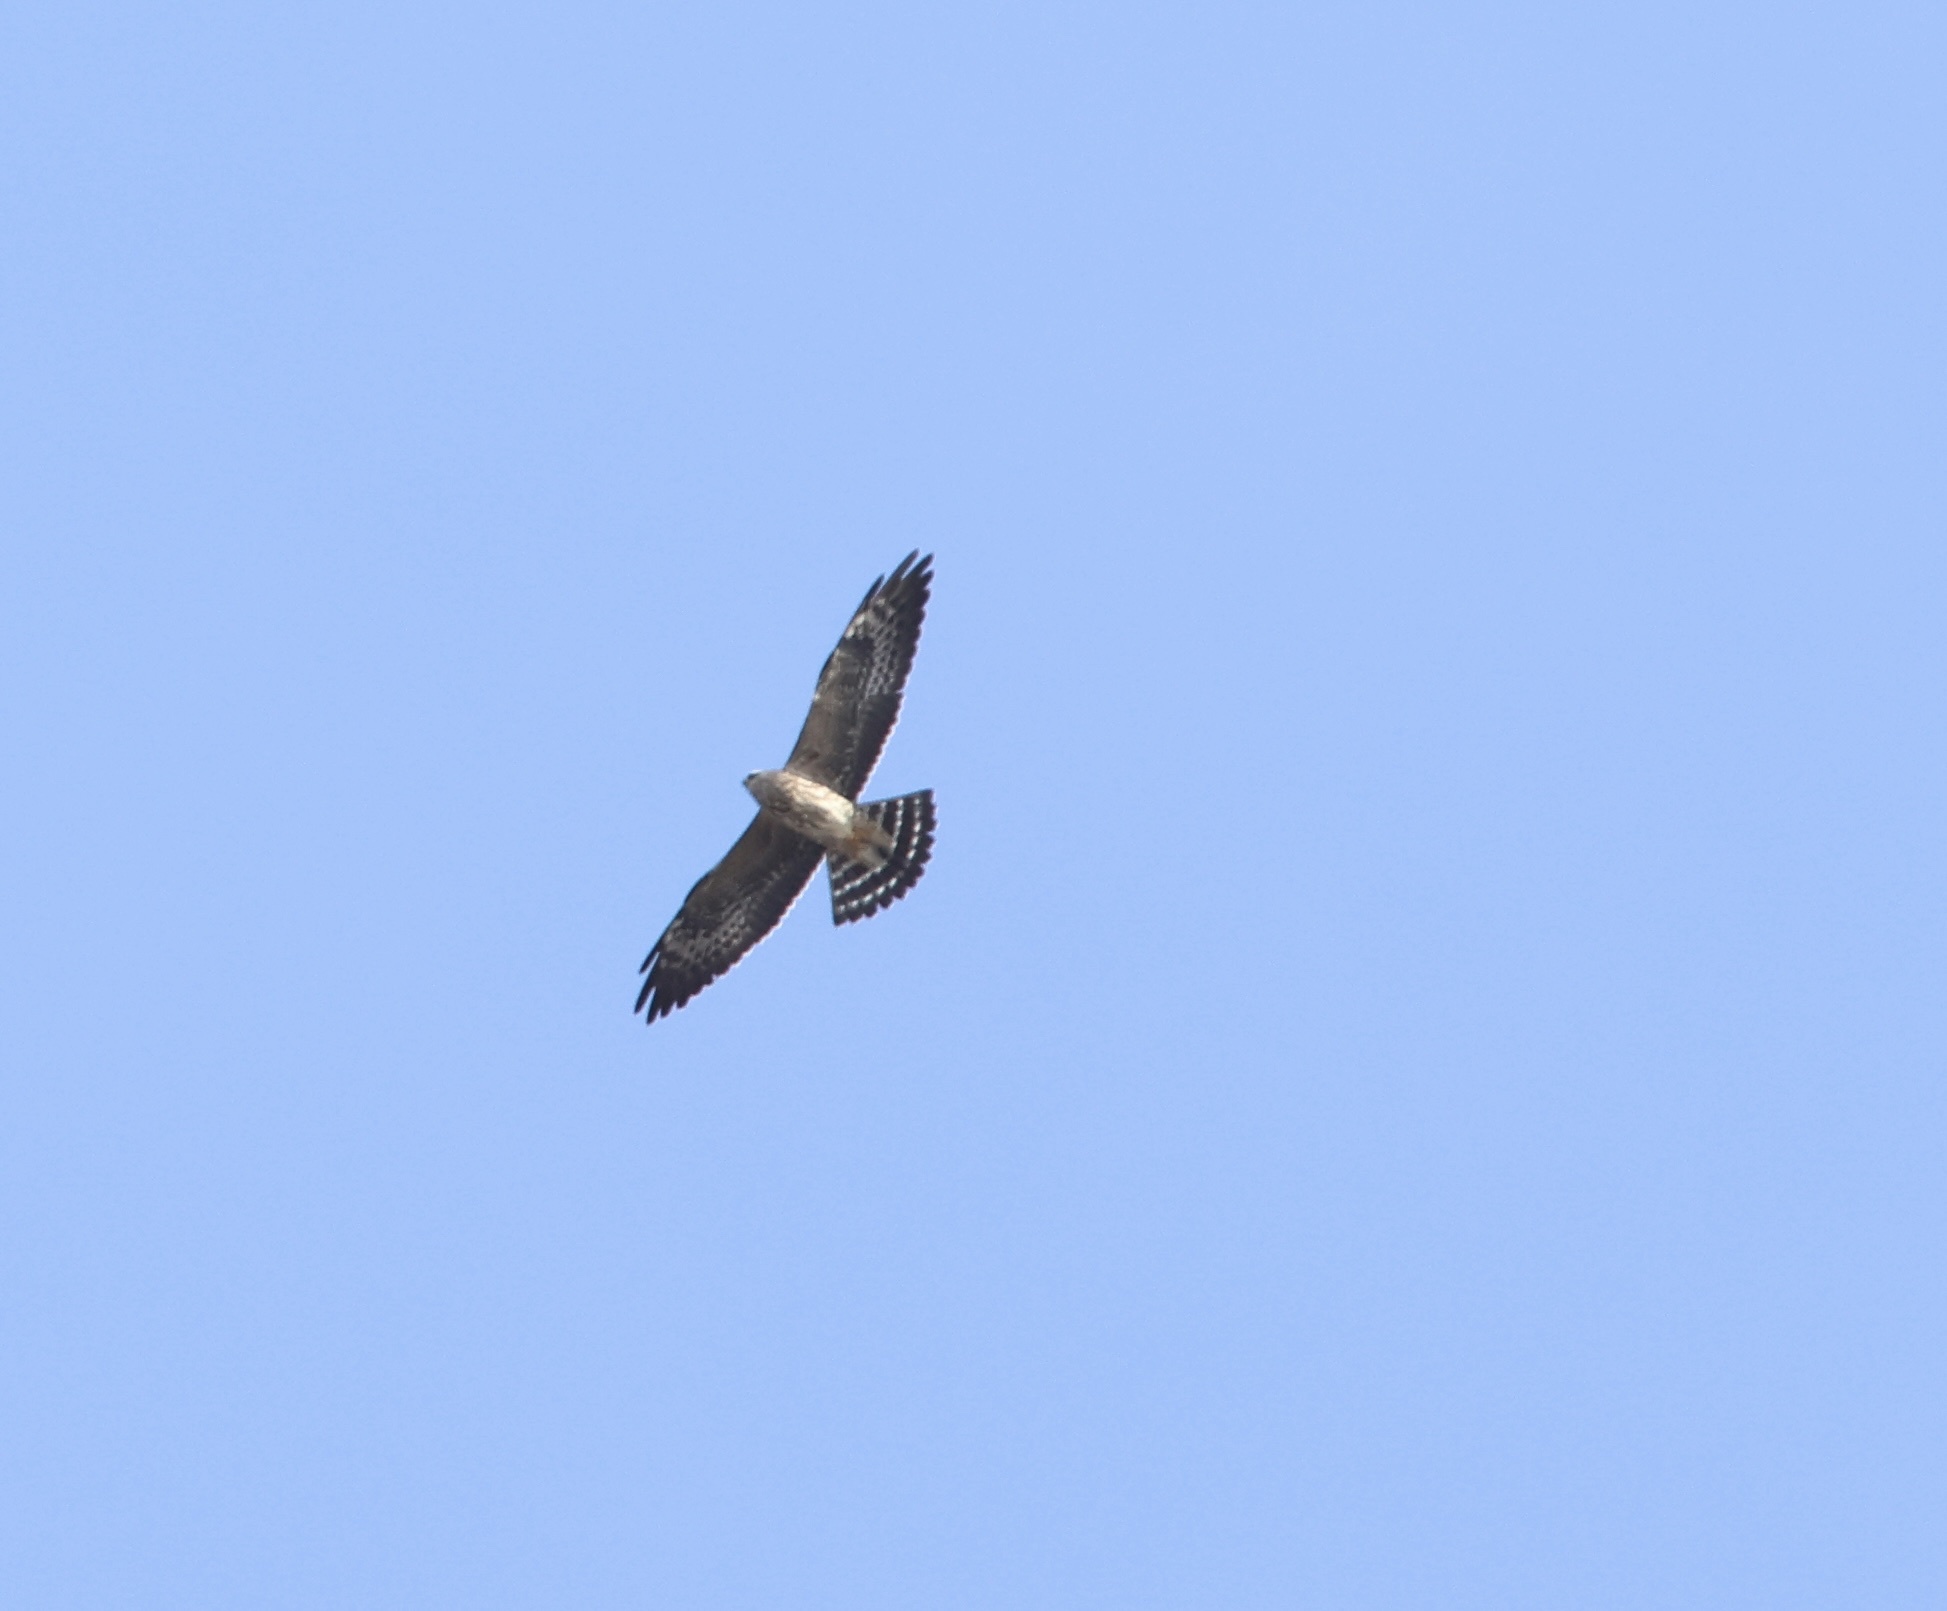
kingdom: Animalia
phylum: Chordata
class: Aves
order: Accipitriformes
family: Accipitridae
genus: Ictinia
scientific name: Ictinia mississippiensis
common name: Mississippi kite
